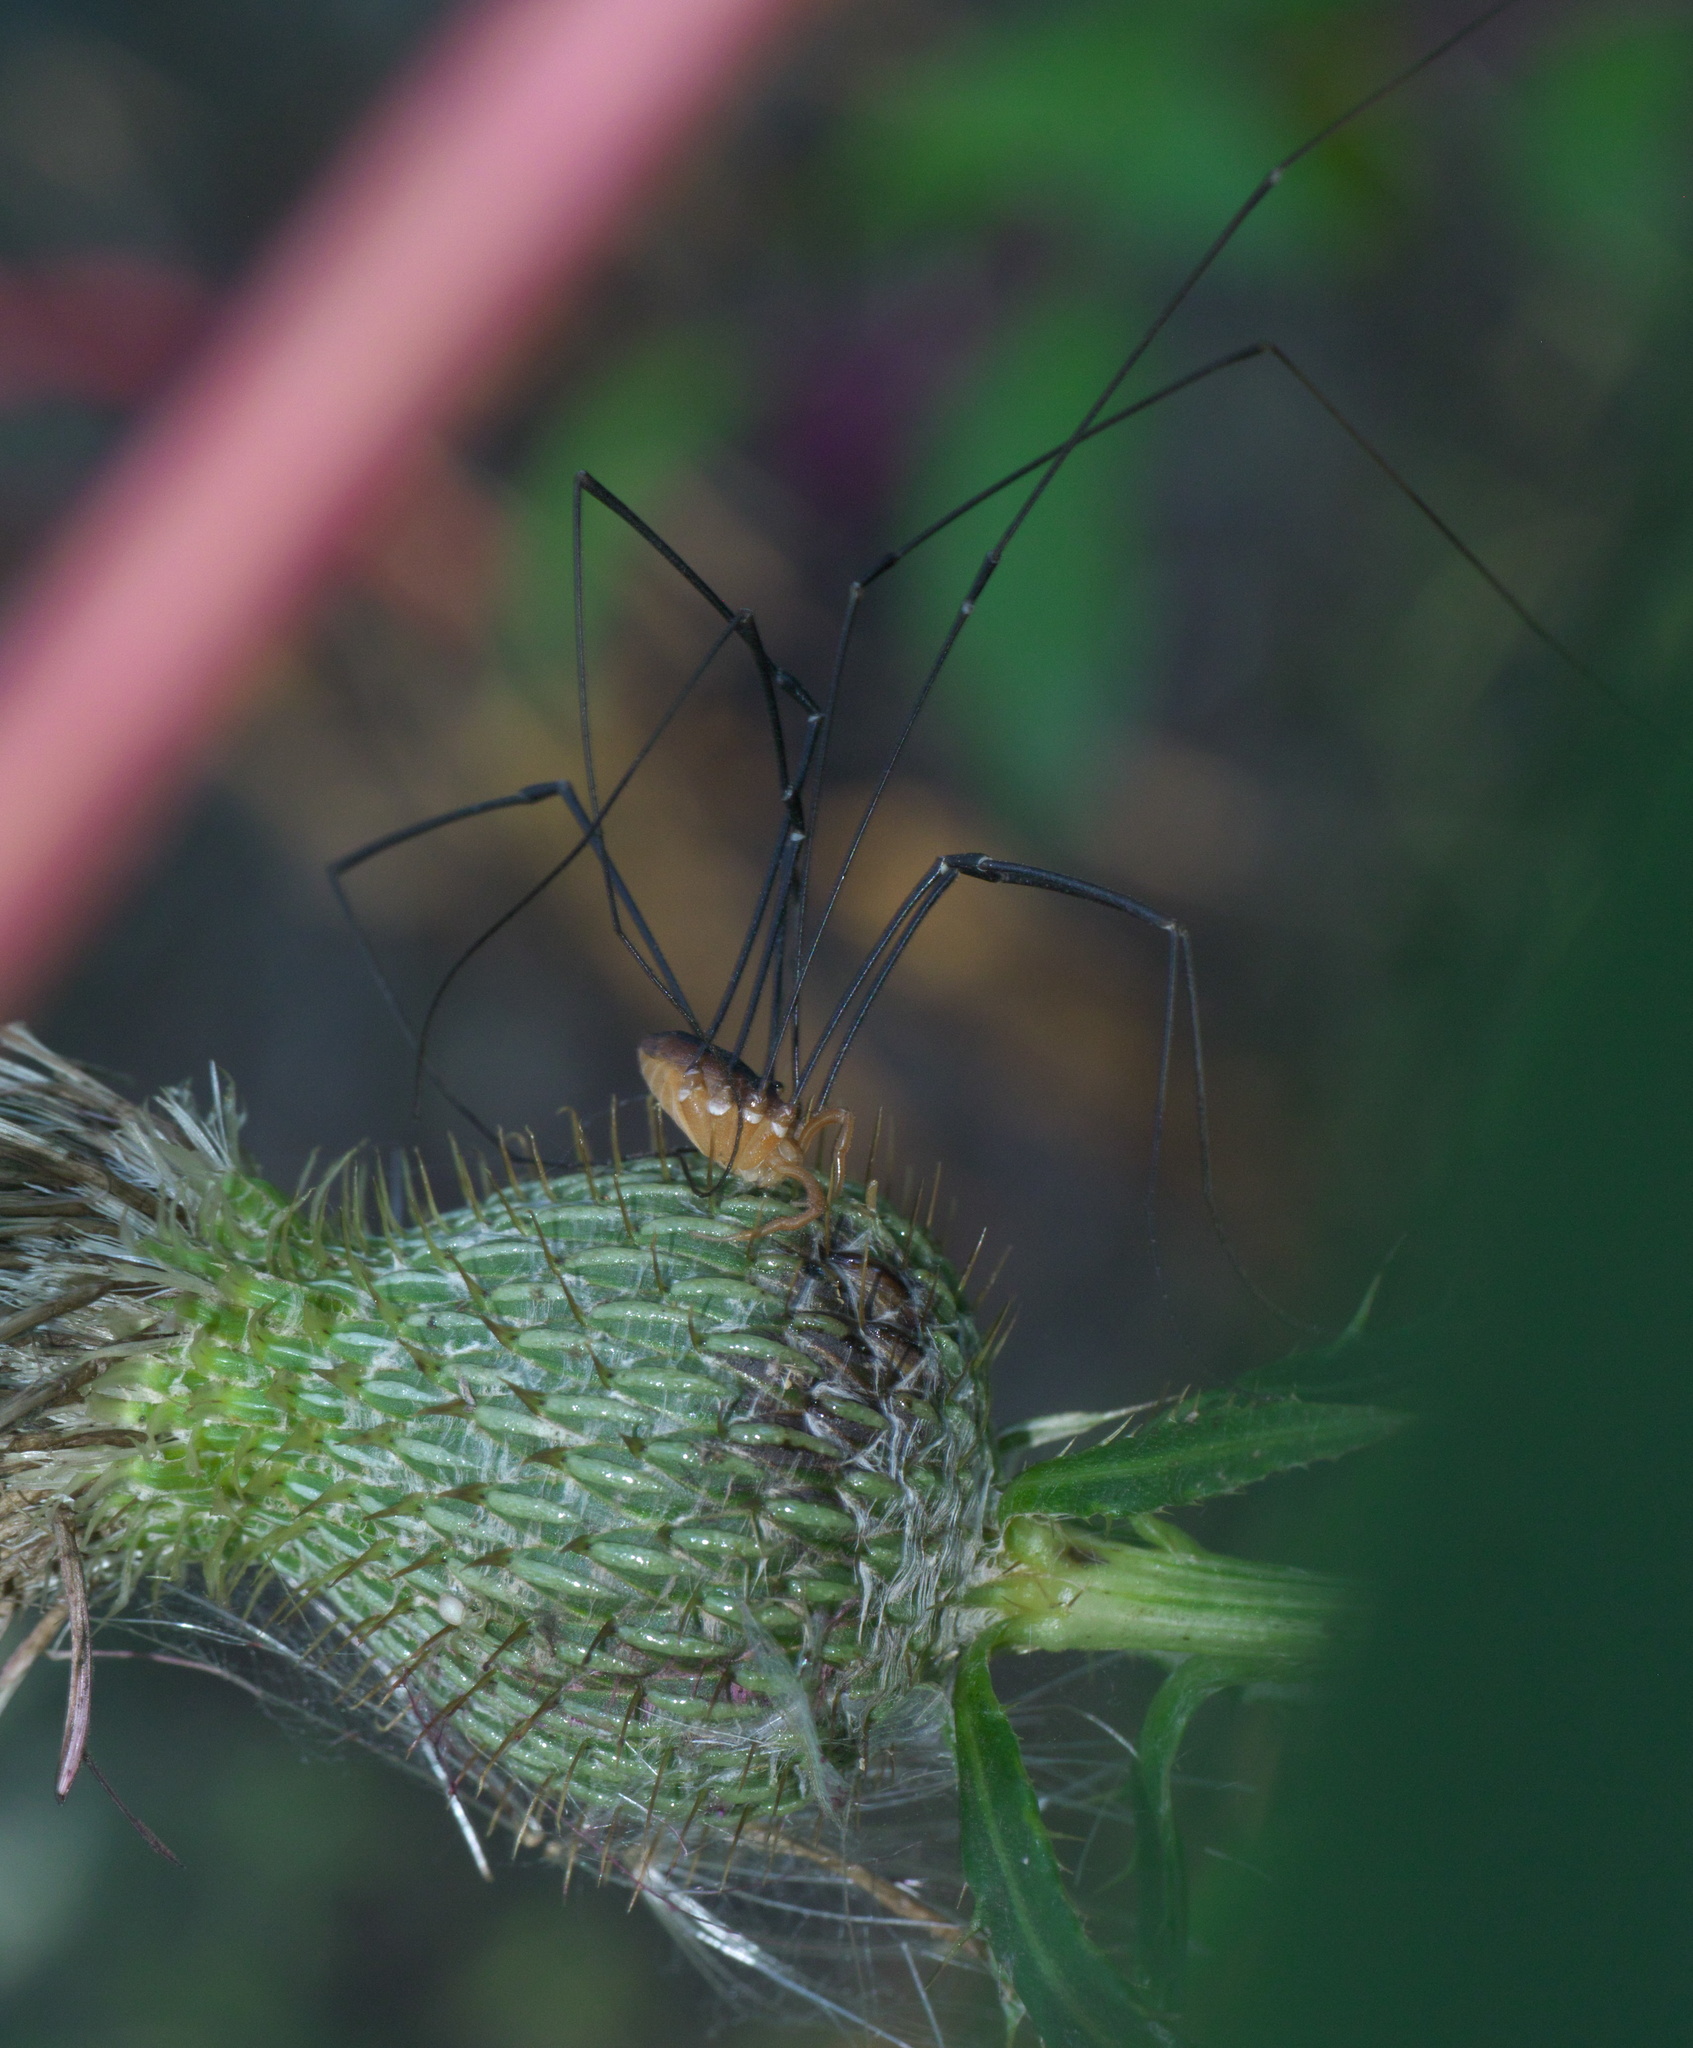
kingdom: Animalia
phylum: Arthropoda
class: Arachnida
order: Opiliones
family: Sclerosomatidae
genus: Leiobunum
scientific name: Leiobunum vittatum
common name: Eastern harvestman
